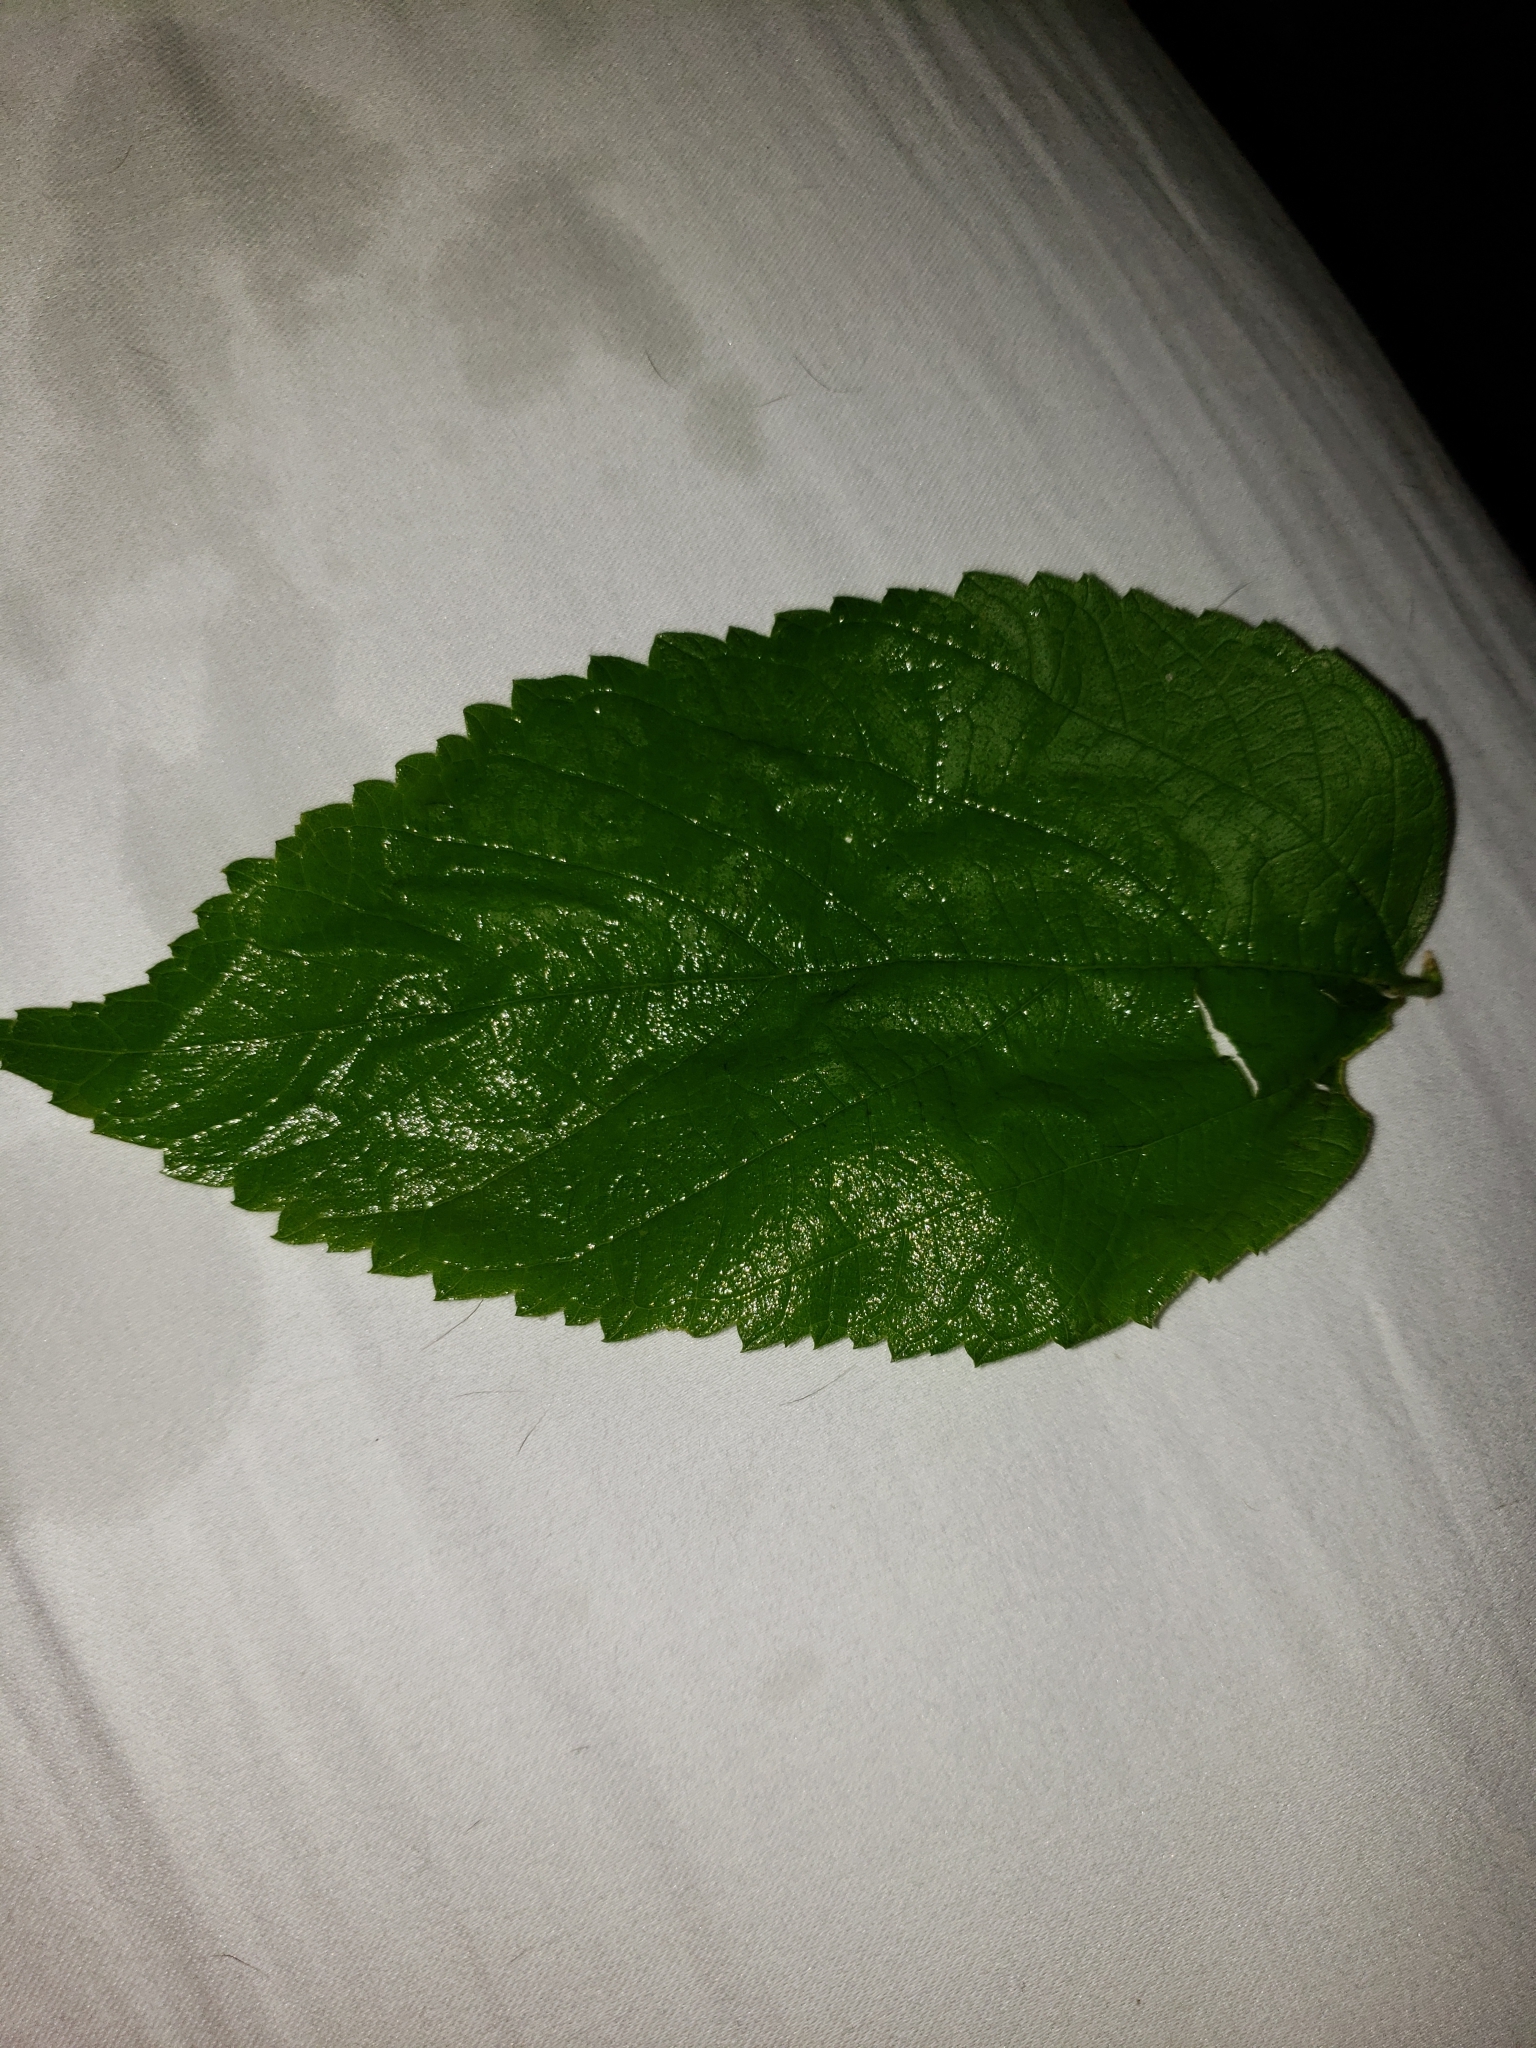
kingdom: Plantae
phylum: Tracheophyta
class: Magnoliopsida
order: Rosales
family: Cannabaceae
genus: Celtis
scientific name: Celtis occidentalis
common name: Common hackberry
